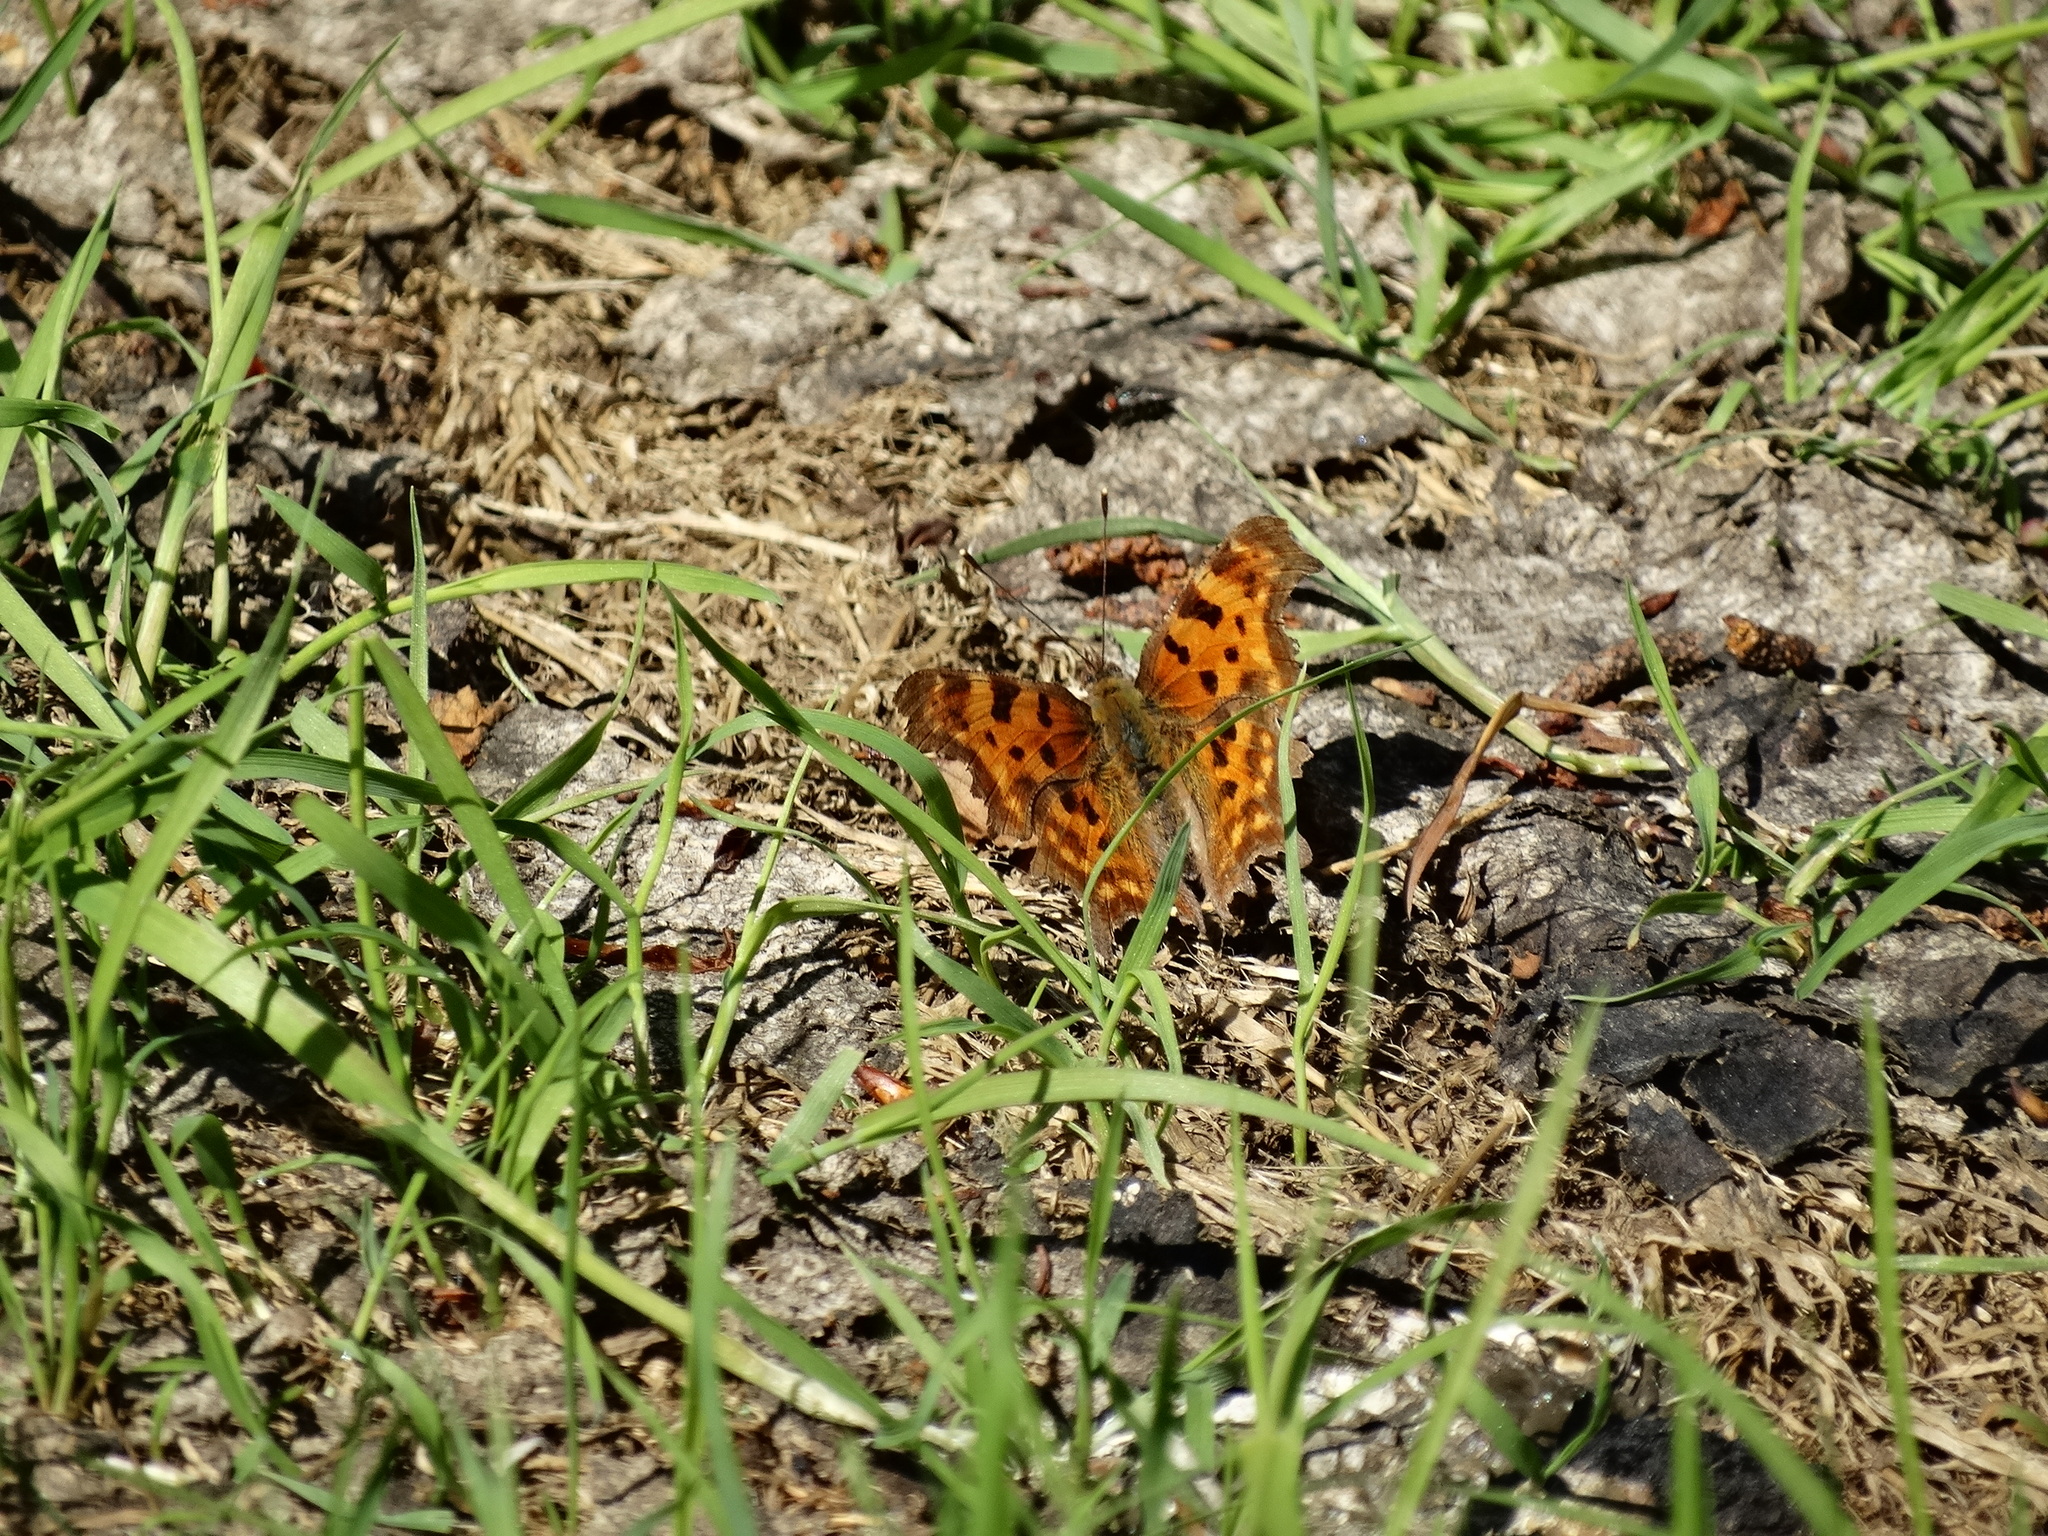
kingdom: Animalia
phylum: Arthropoda
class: Insecta
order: Lepidoptera
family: Nymphalidae
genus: Polygonia
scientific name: Polygonia c-album
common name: Comma
